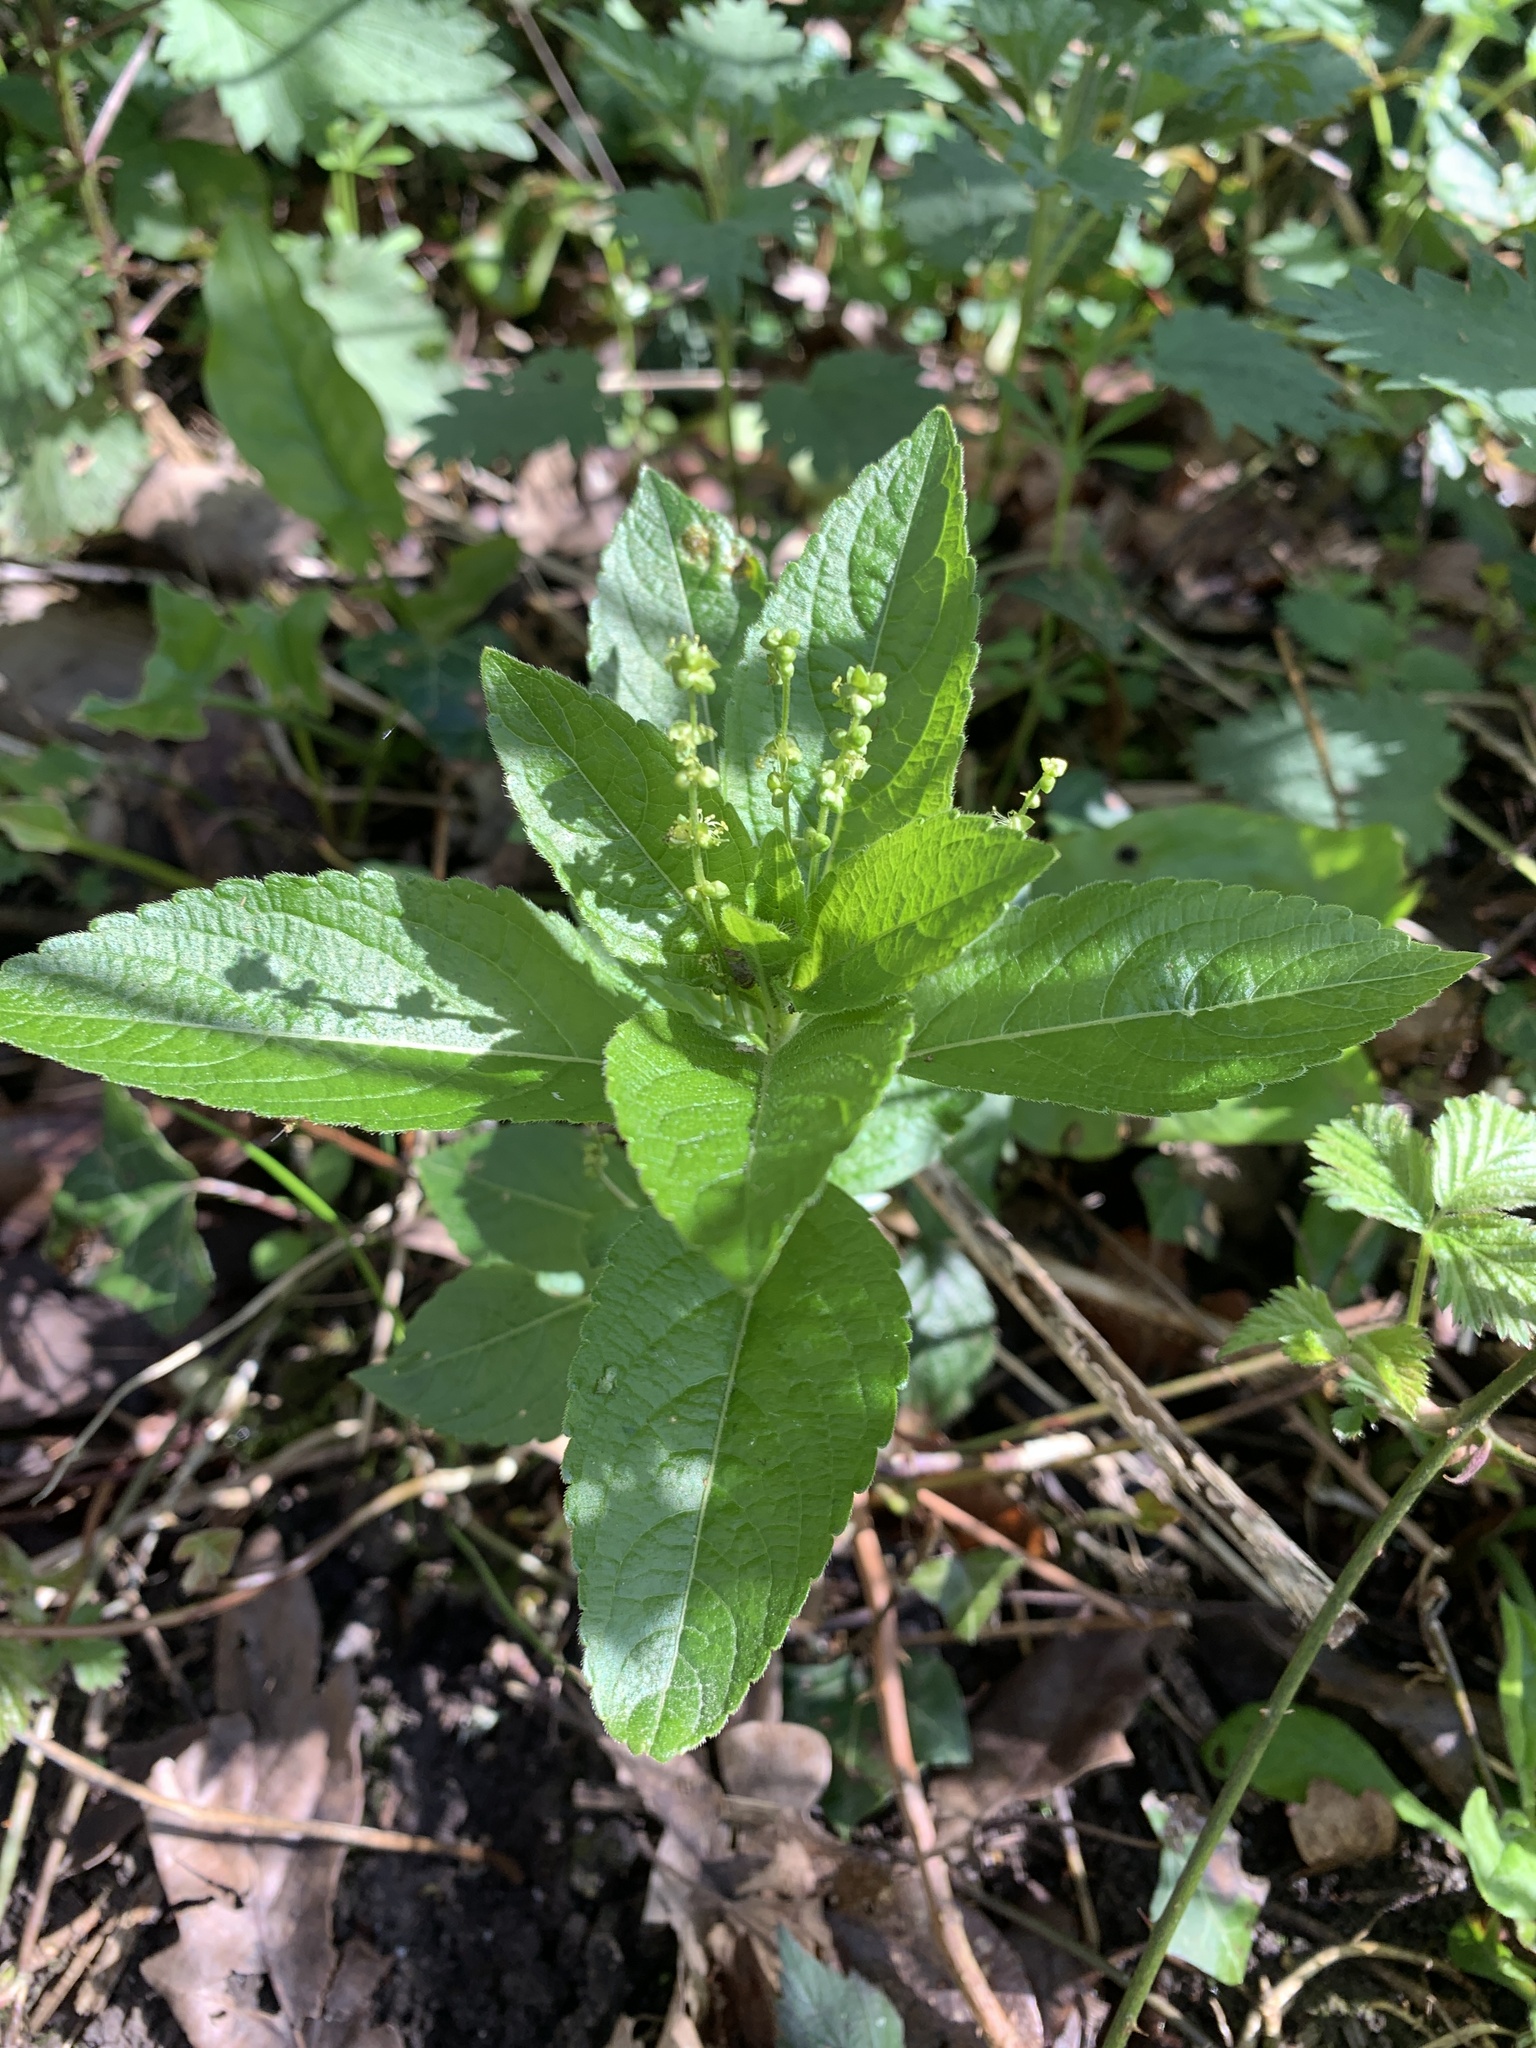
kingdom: Plantae
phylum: Tracheophyta
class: Magnoliopsida
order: Malpighiales
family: Euphorbiaceae
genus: Mercurialis
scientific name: Mercurialis perennis
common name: Dog mercury
